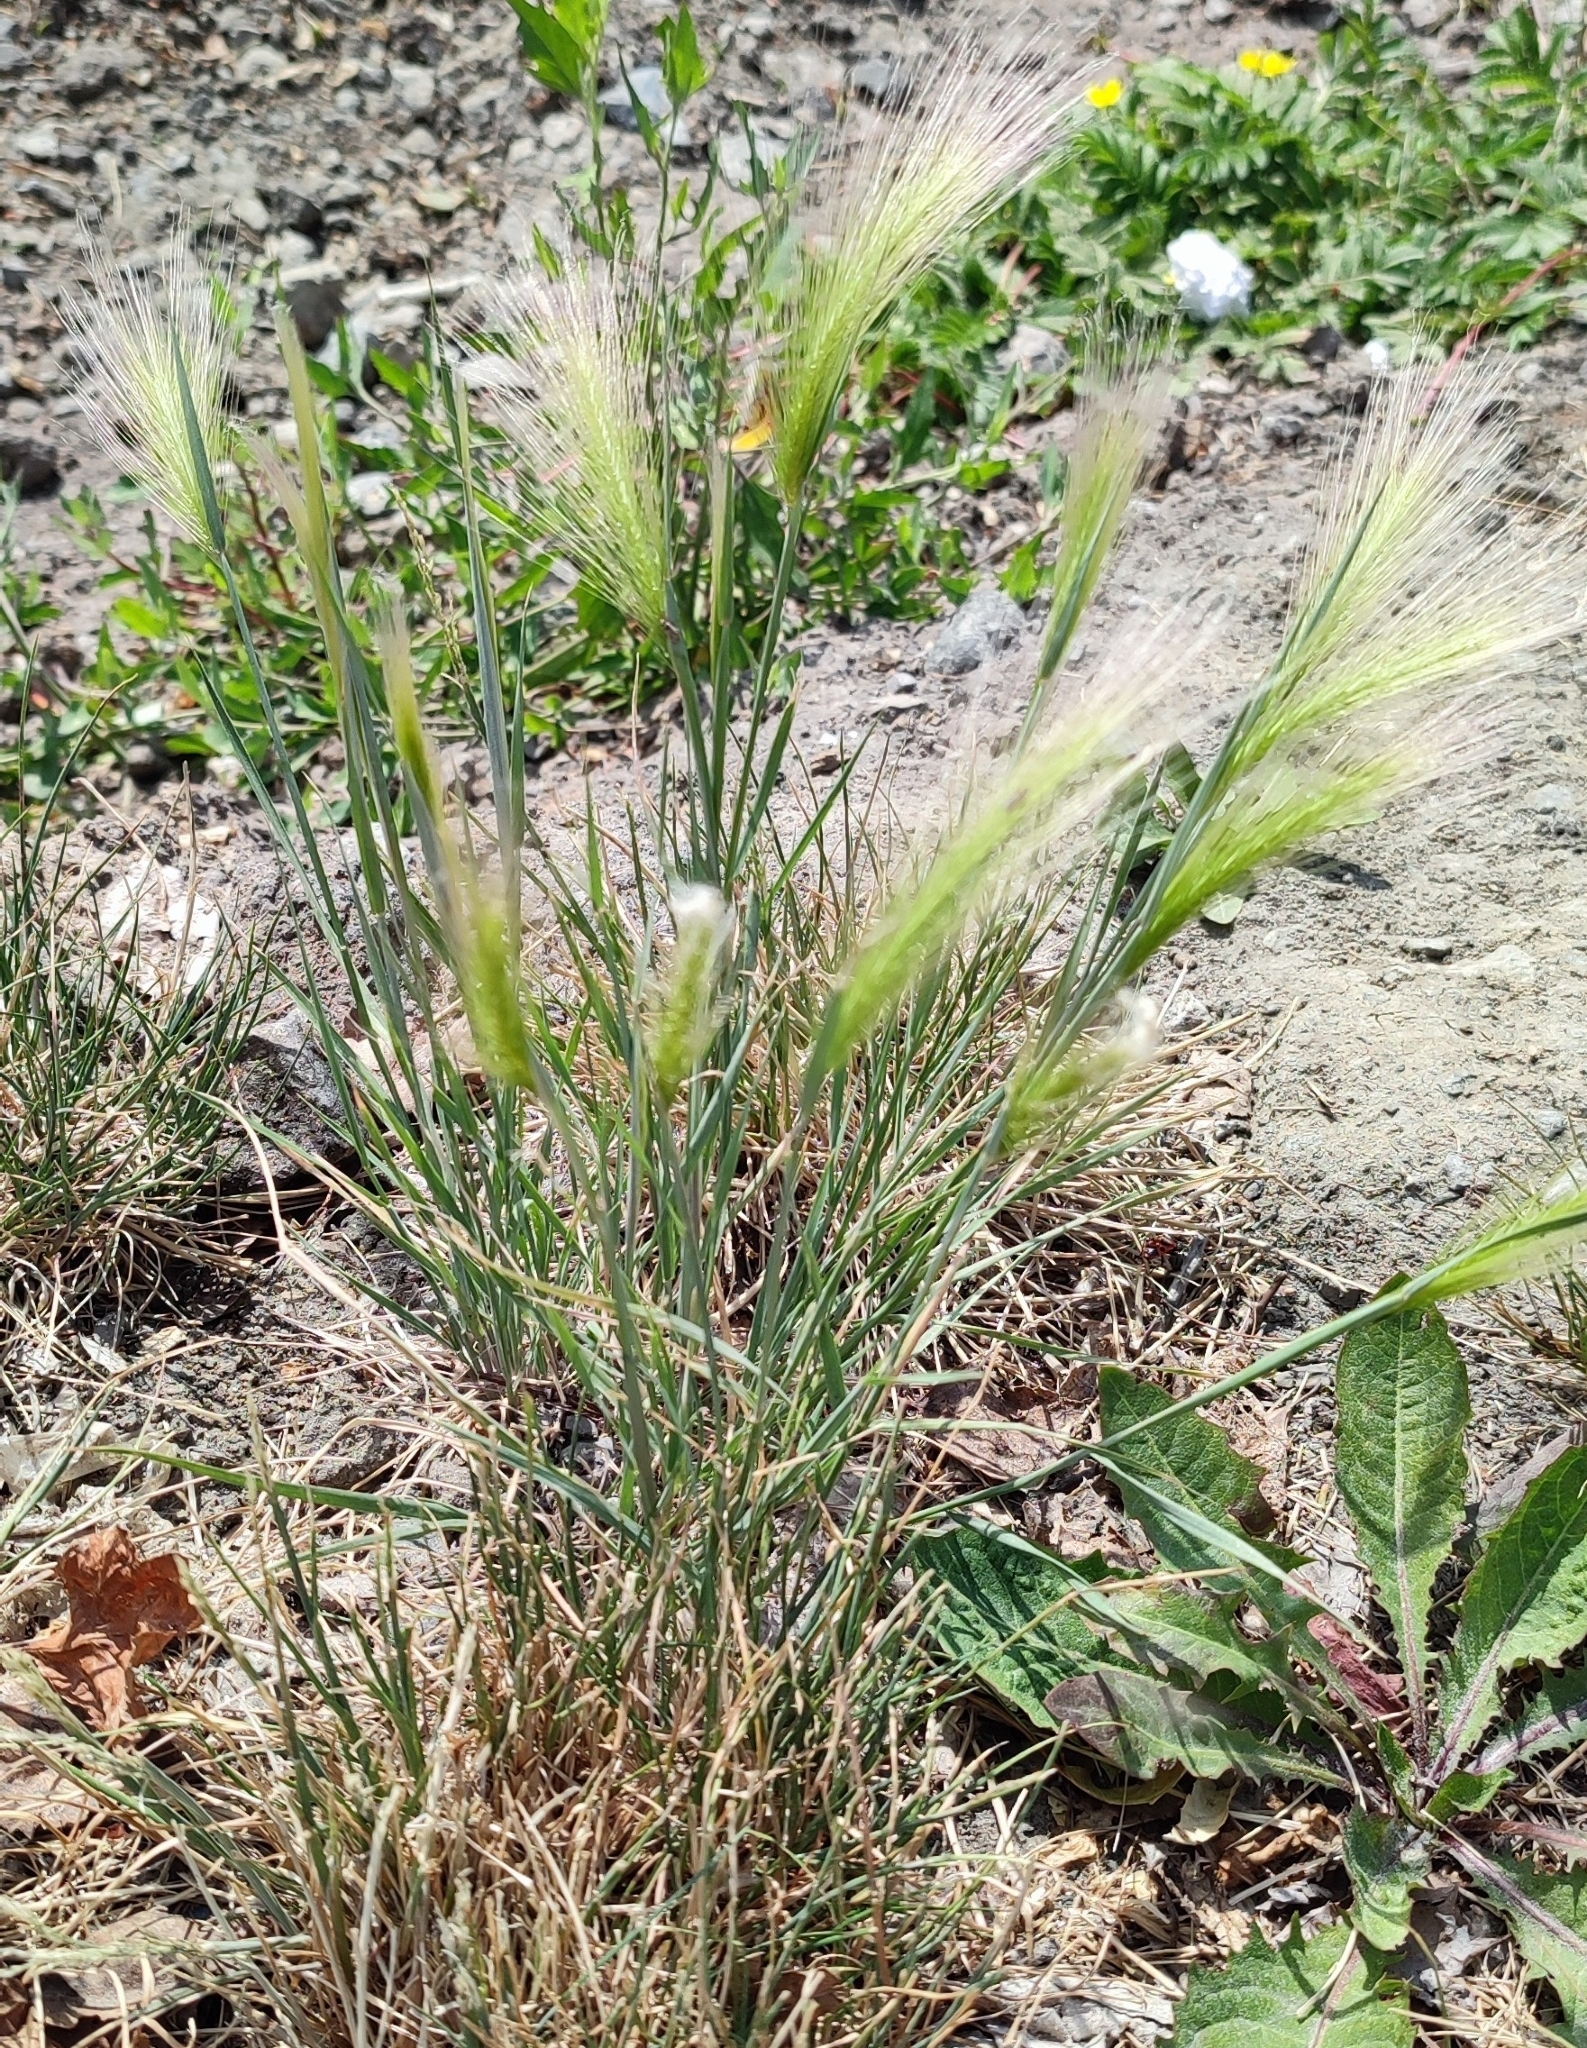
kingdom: Plantae
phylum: Tracheophyta
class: Liliopsida
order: Poales
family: Poaceae
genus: Hordeum
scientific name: Hordeum jubatum
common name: Foxtail barley
